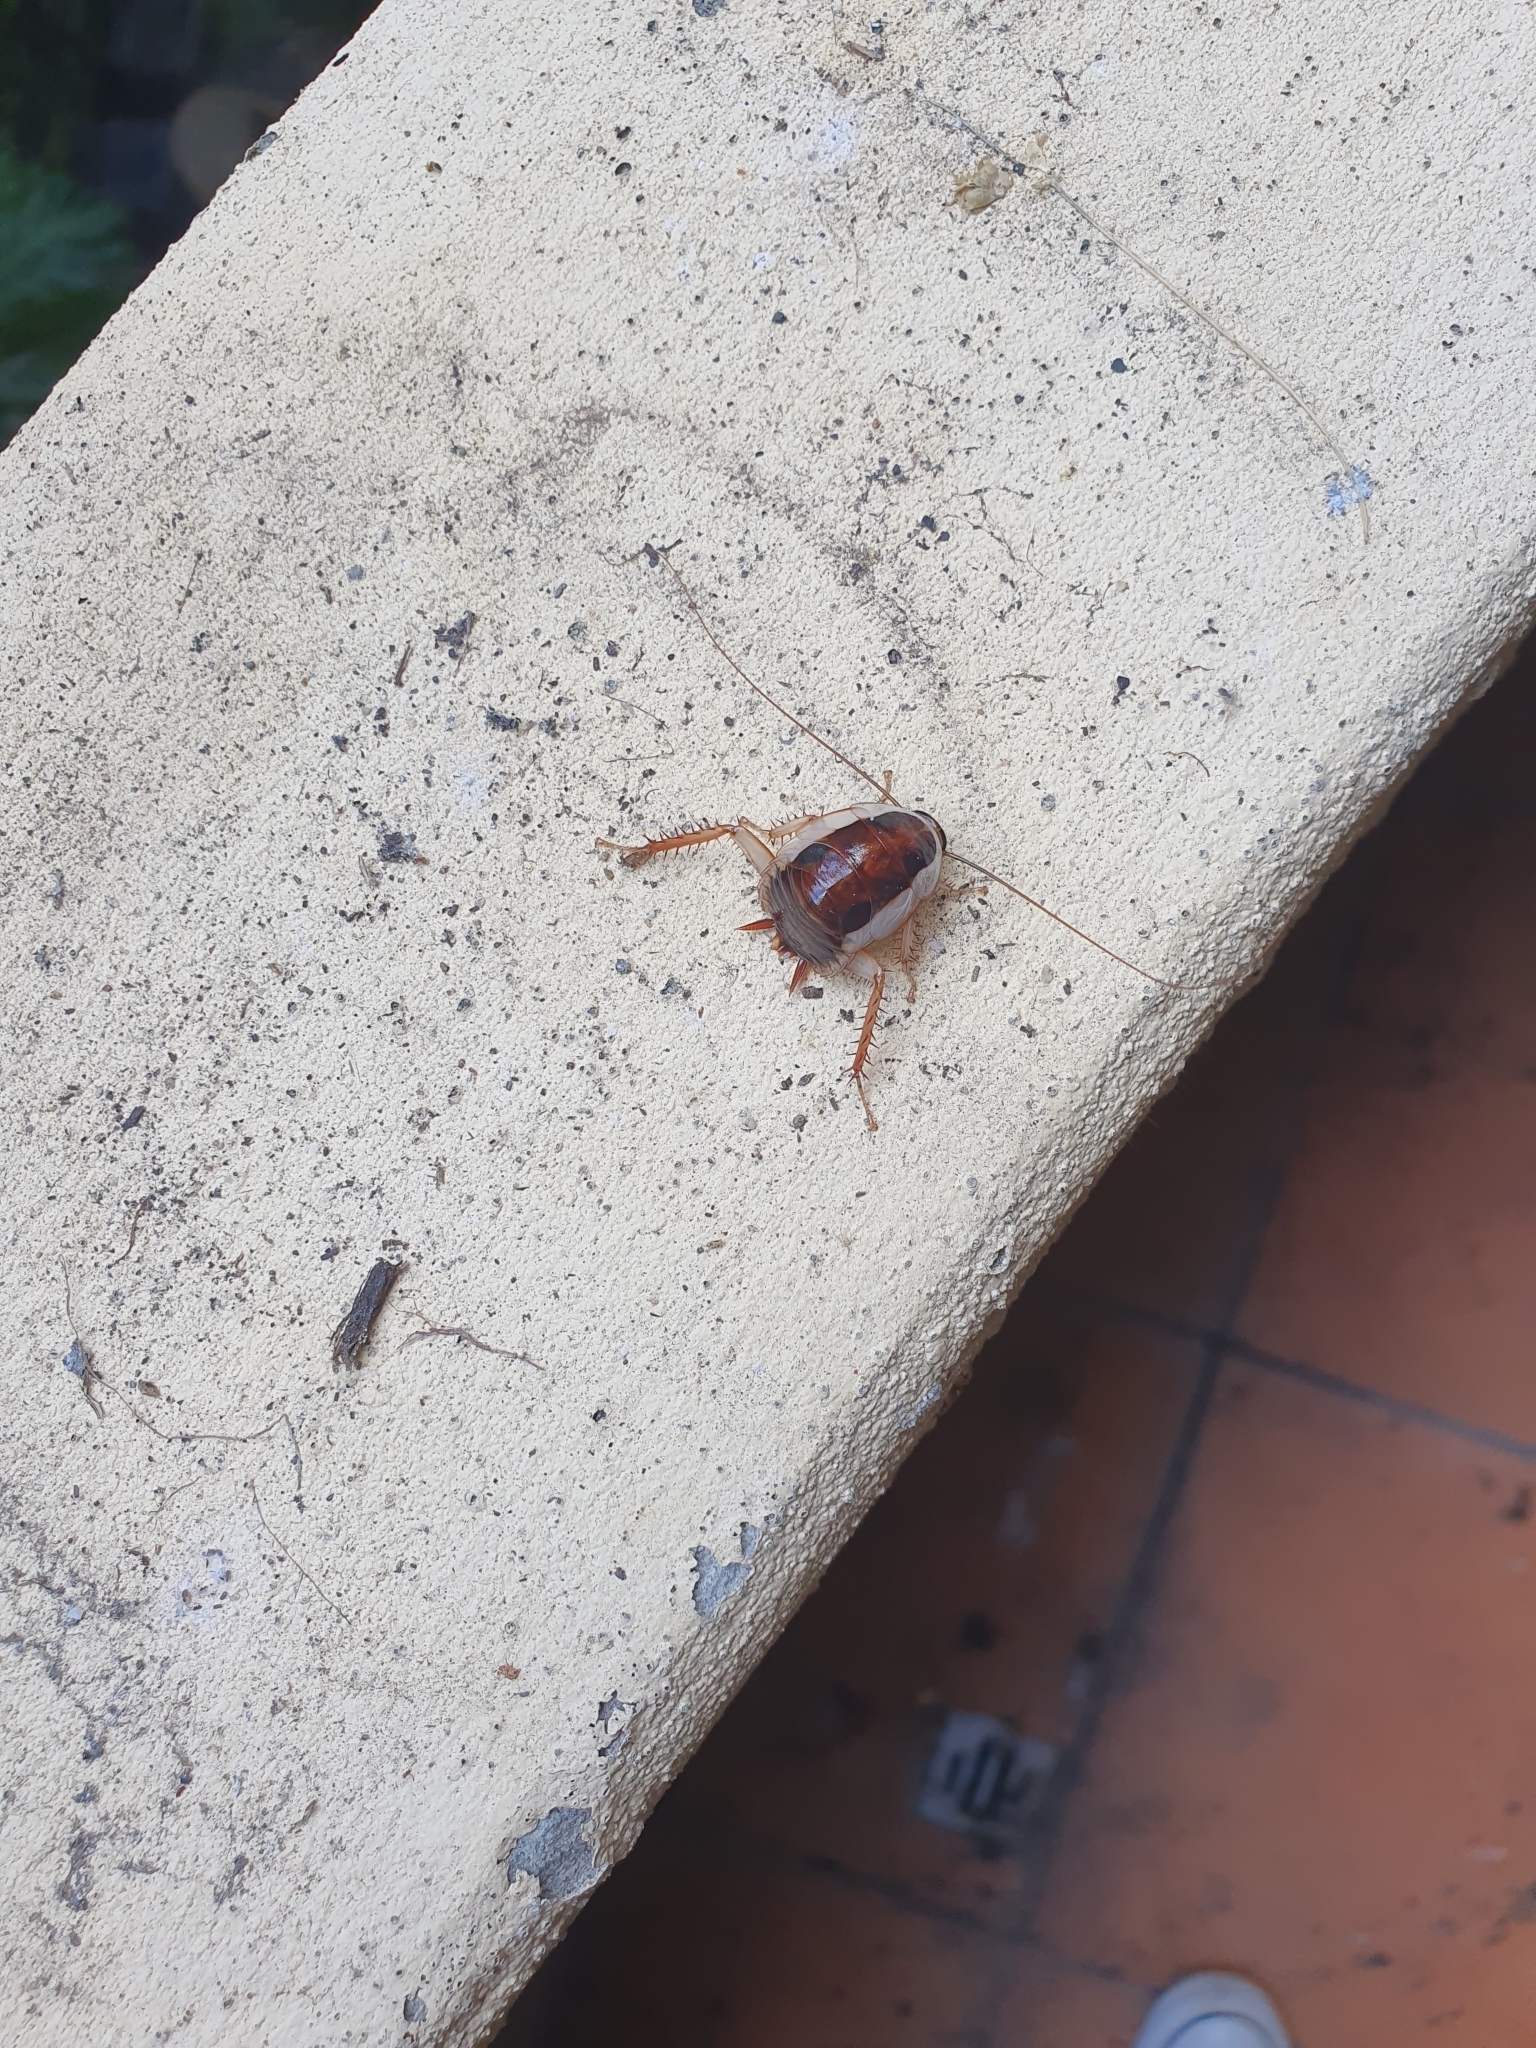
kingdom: Animalia
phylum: Arthropoda
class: Insecta
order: Blattodea
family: Blattidae
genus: Drymaplaneta
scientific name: Drymaplaneta semivitta
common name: Gisborne cockroach
